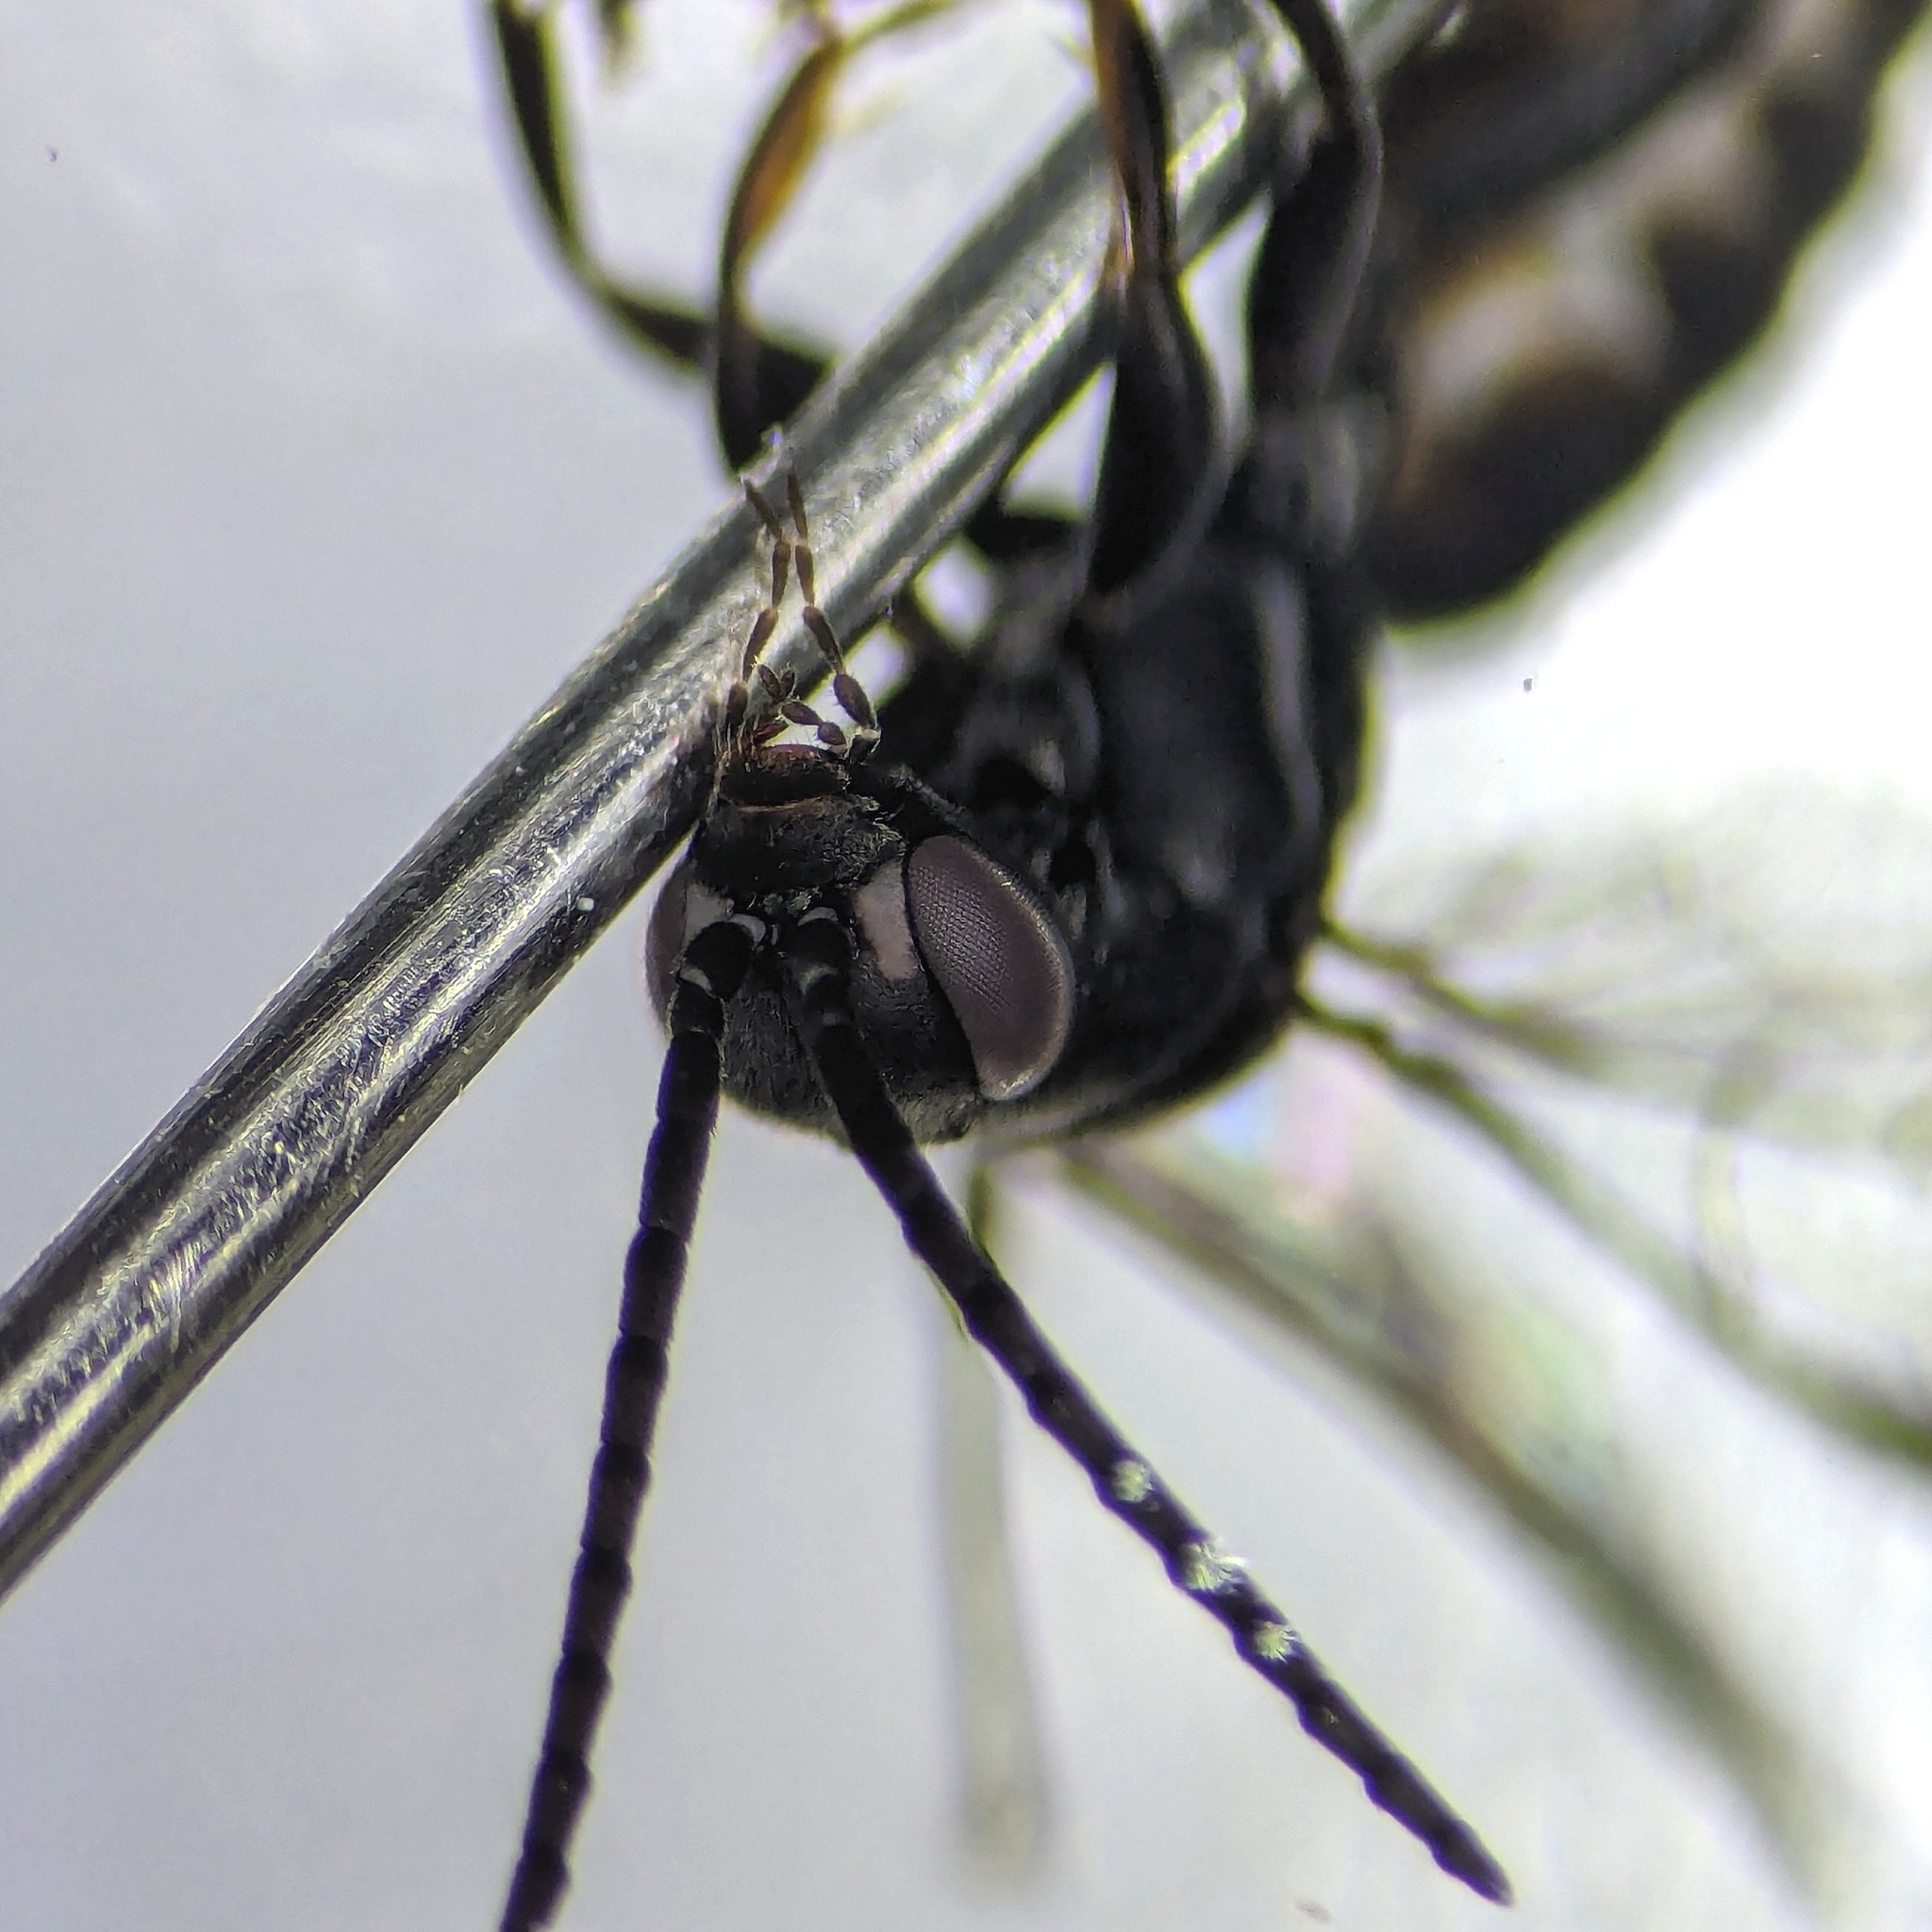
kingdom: Animalia
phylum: Arthropoda
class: Insecta
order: Hymenoptera
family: Pompilidae
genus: Epipompilus
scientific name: Epipompilus insularis
